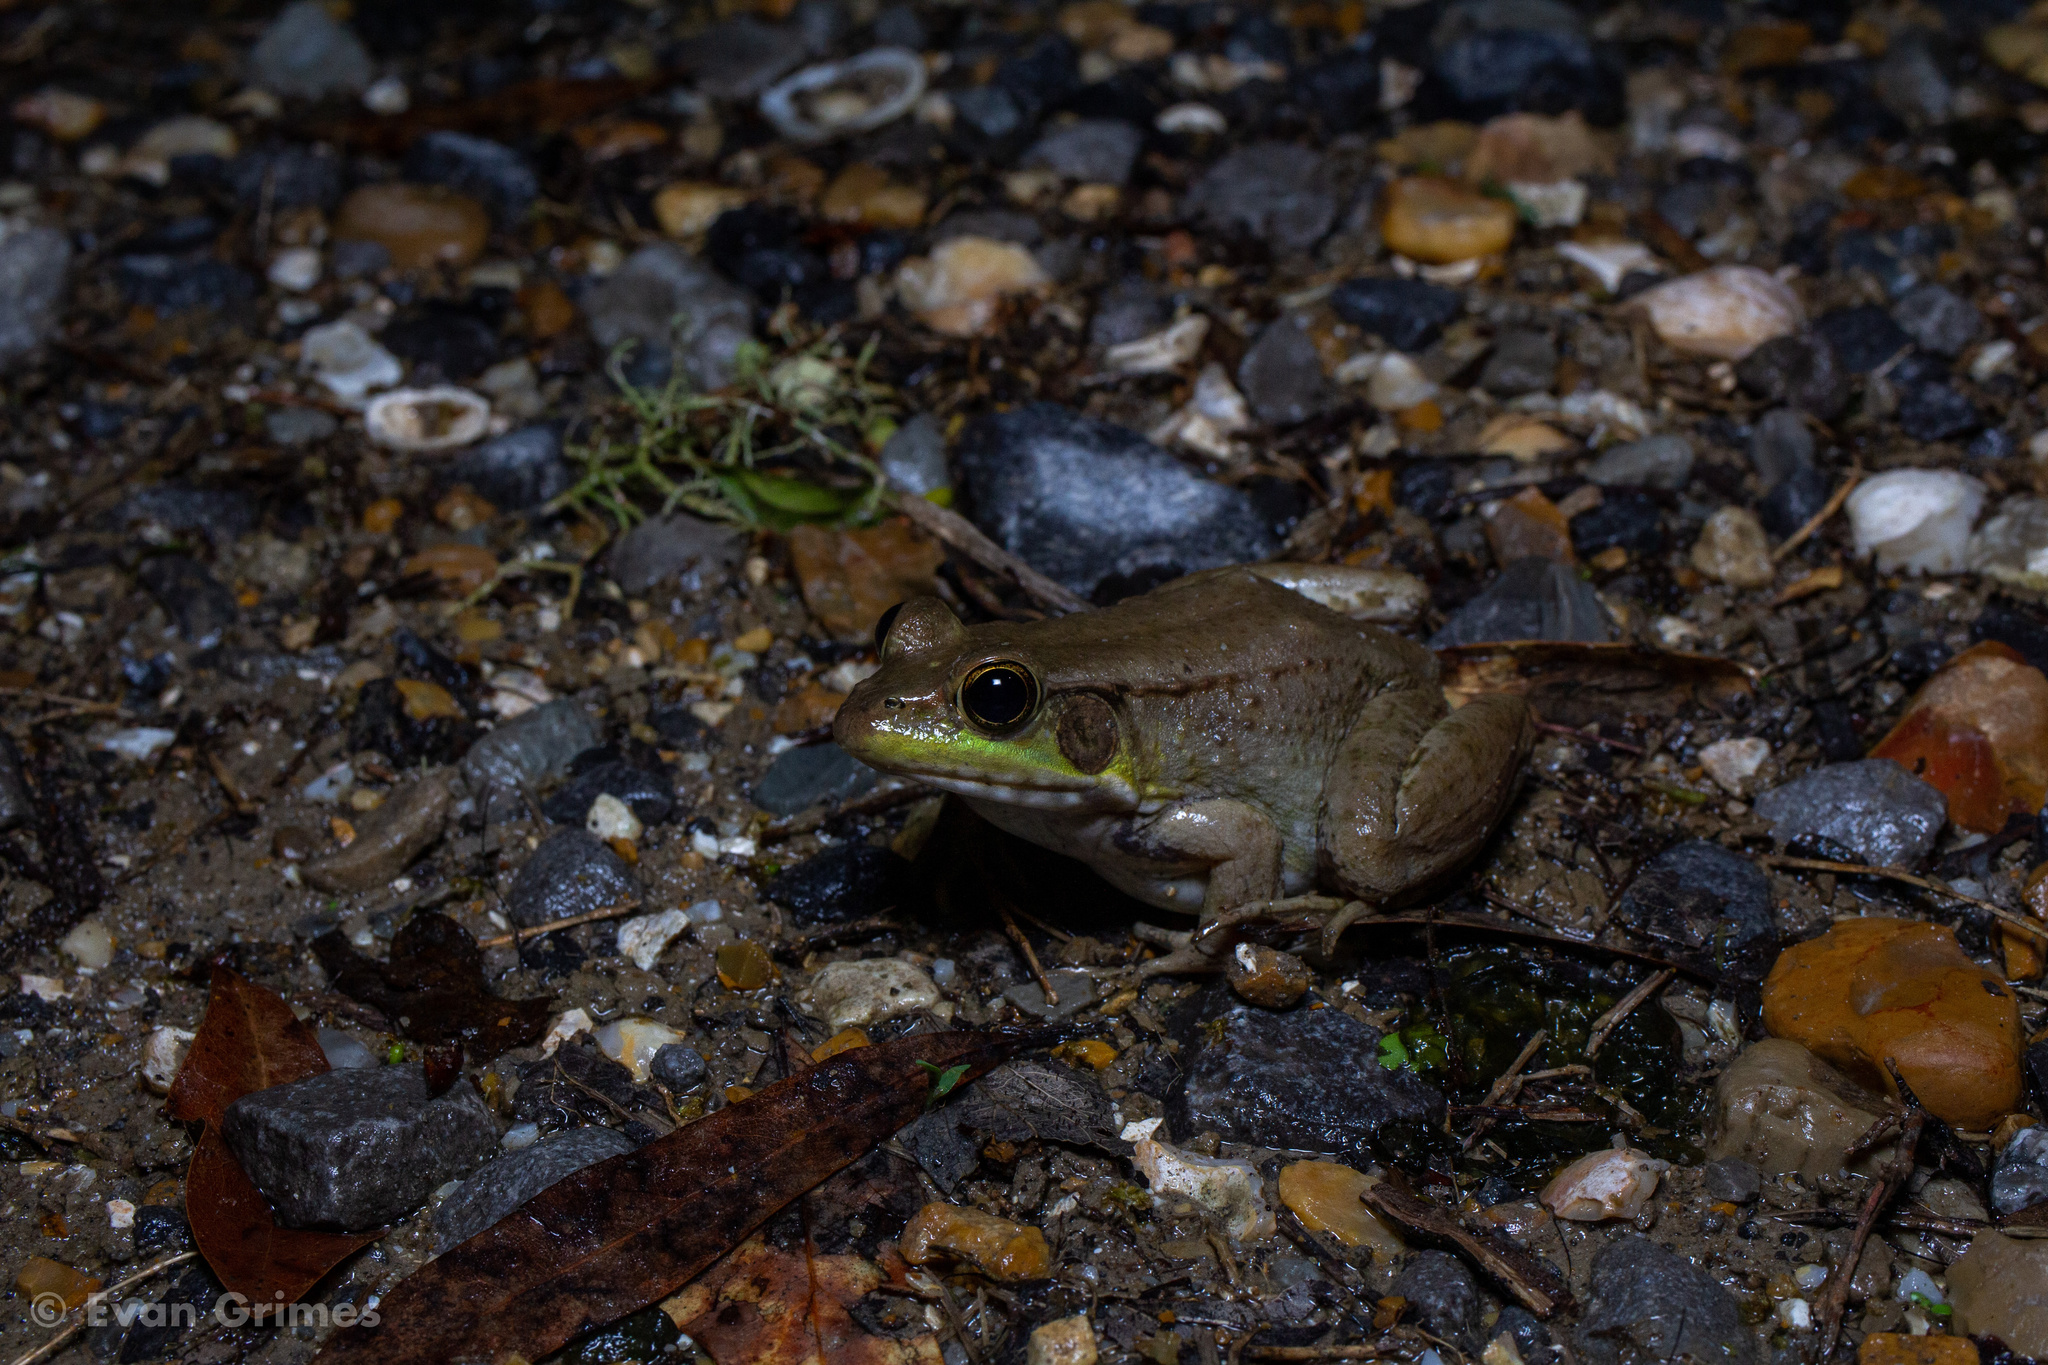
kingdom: Animalia
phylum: Chordata
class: Amphibia
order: Anura
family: Ranidae
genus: Lithobates
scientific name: Lithobates clamitans
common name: Green frog
